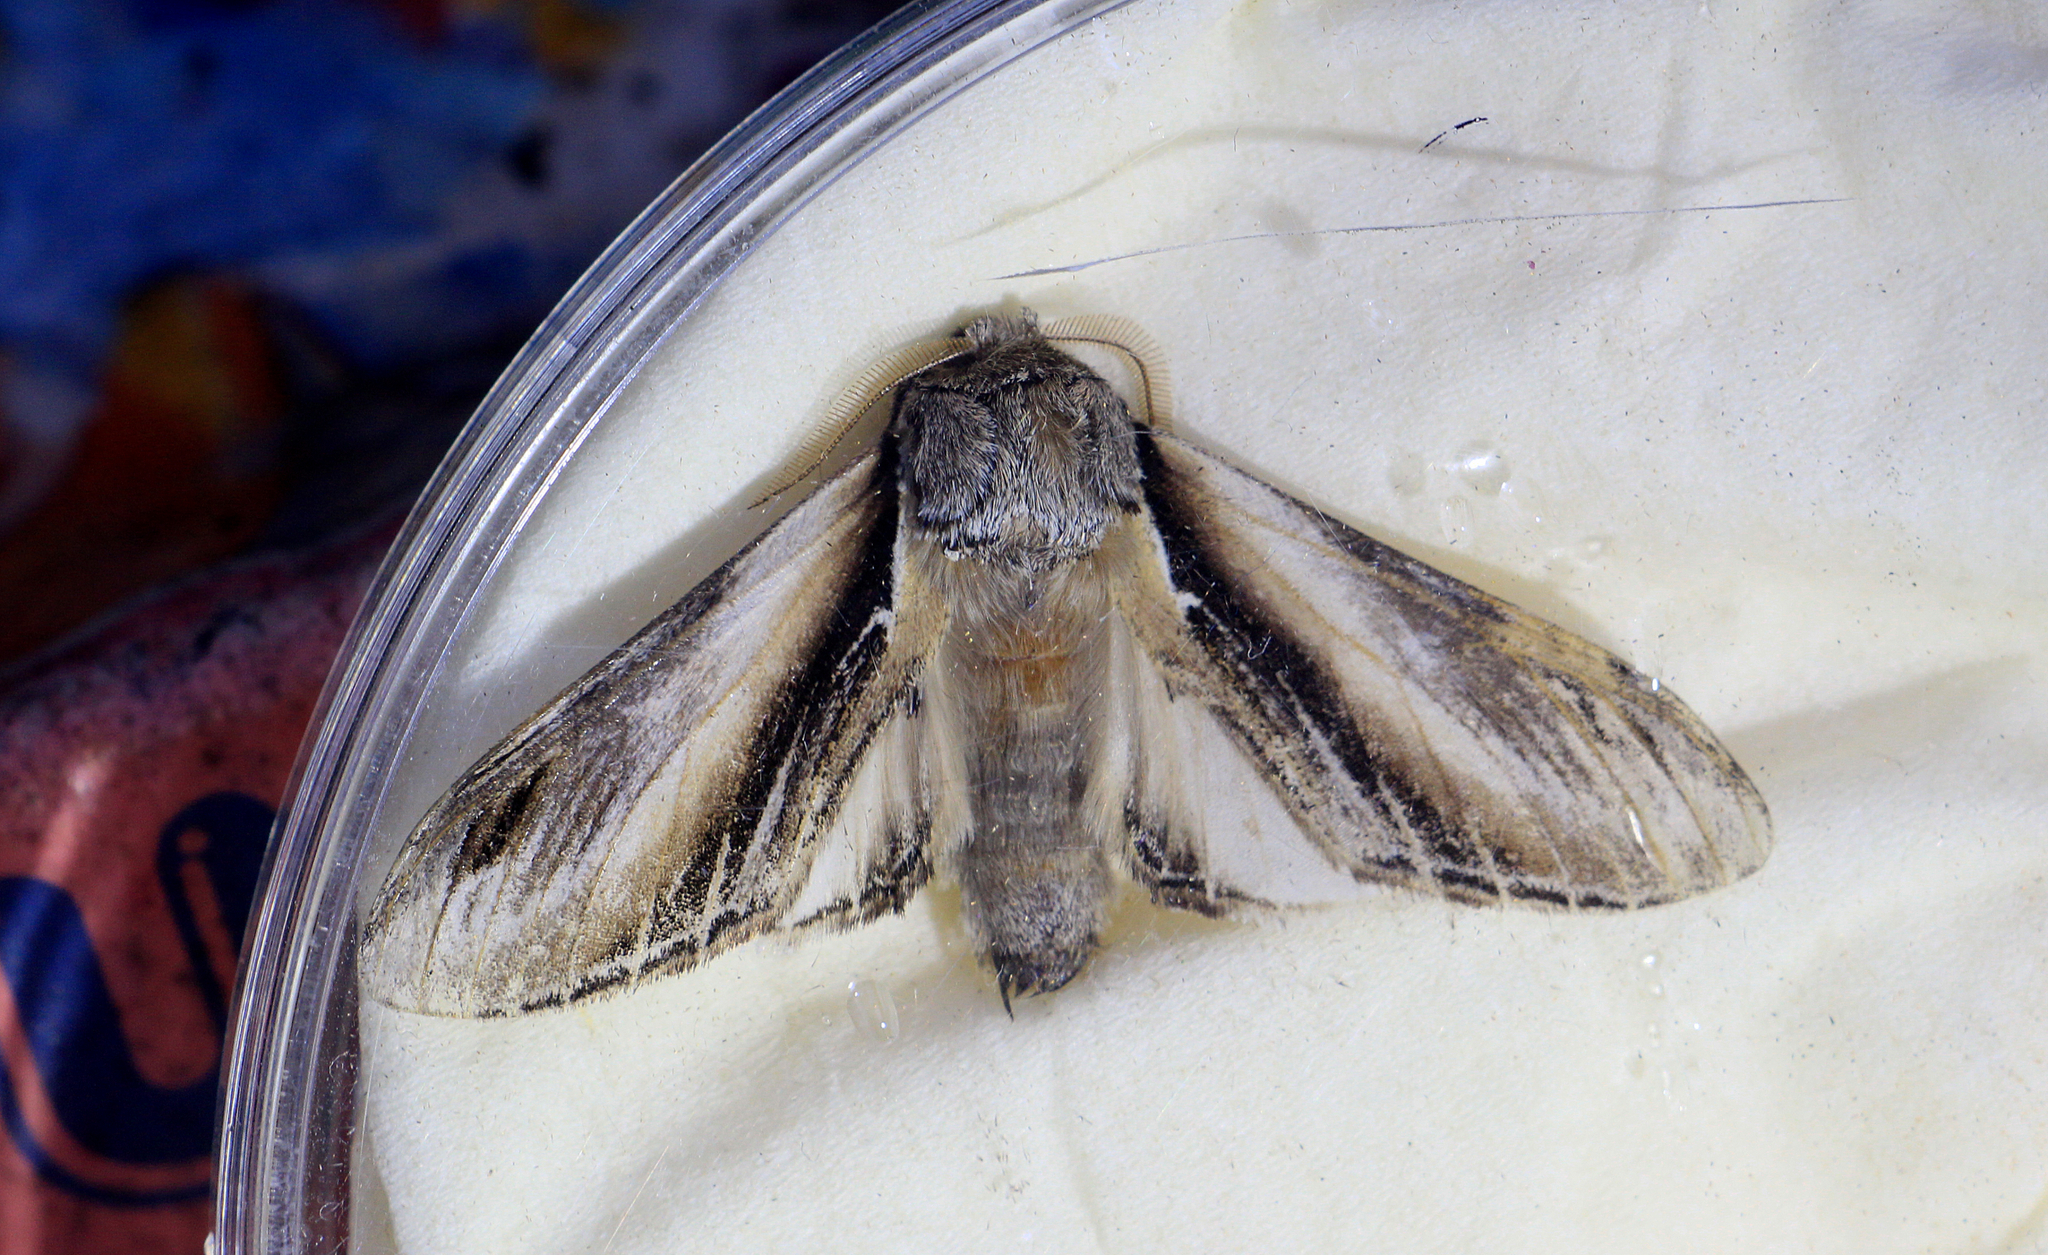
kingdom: Animalia
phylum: Arthropoda
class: Insecta
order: Lepidoptera
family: Notodontidae
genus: Pheosia
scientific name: Pheosia tremula
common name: Swallow prominent
